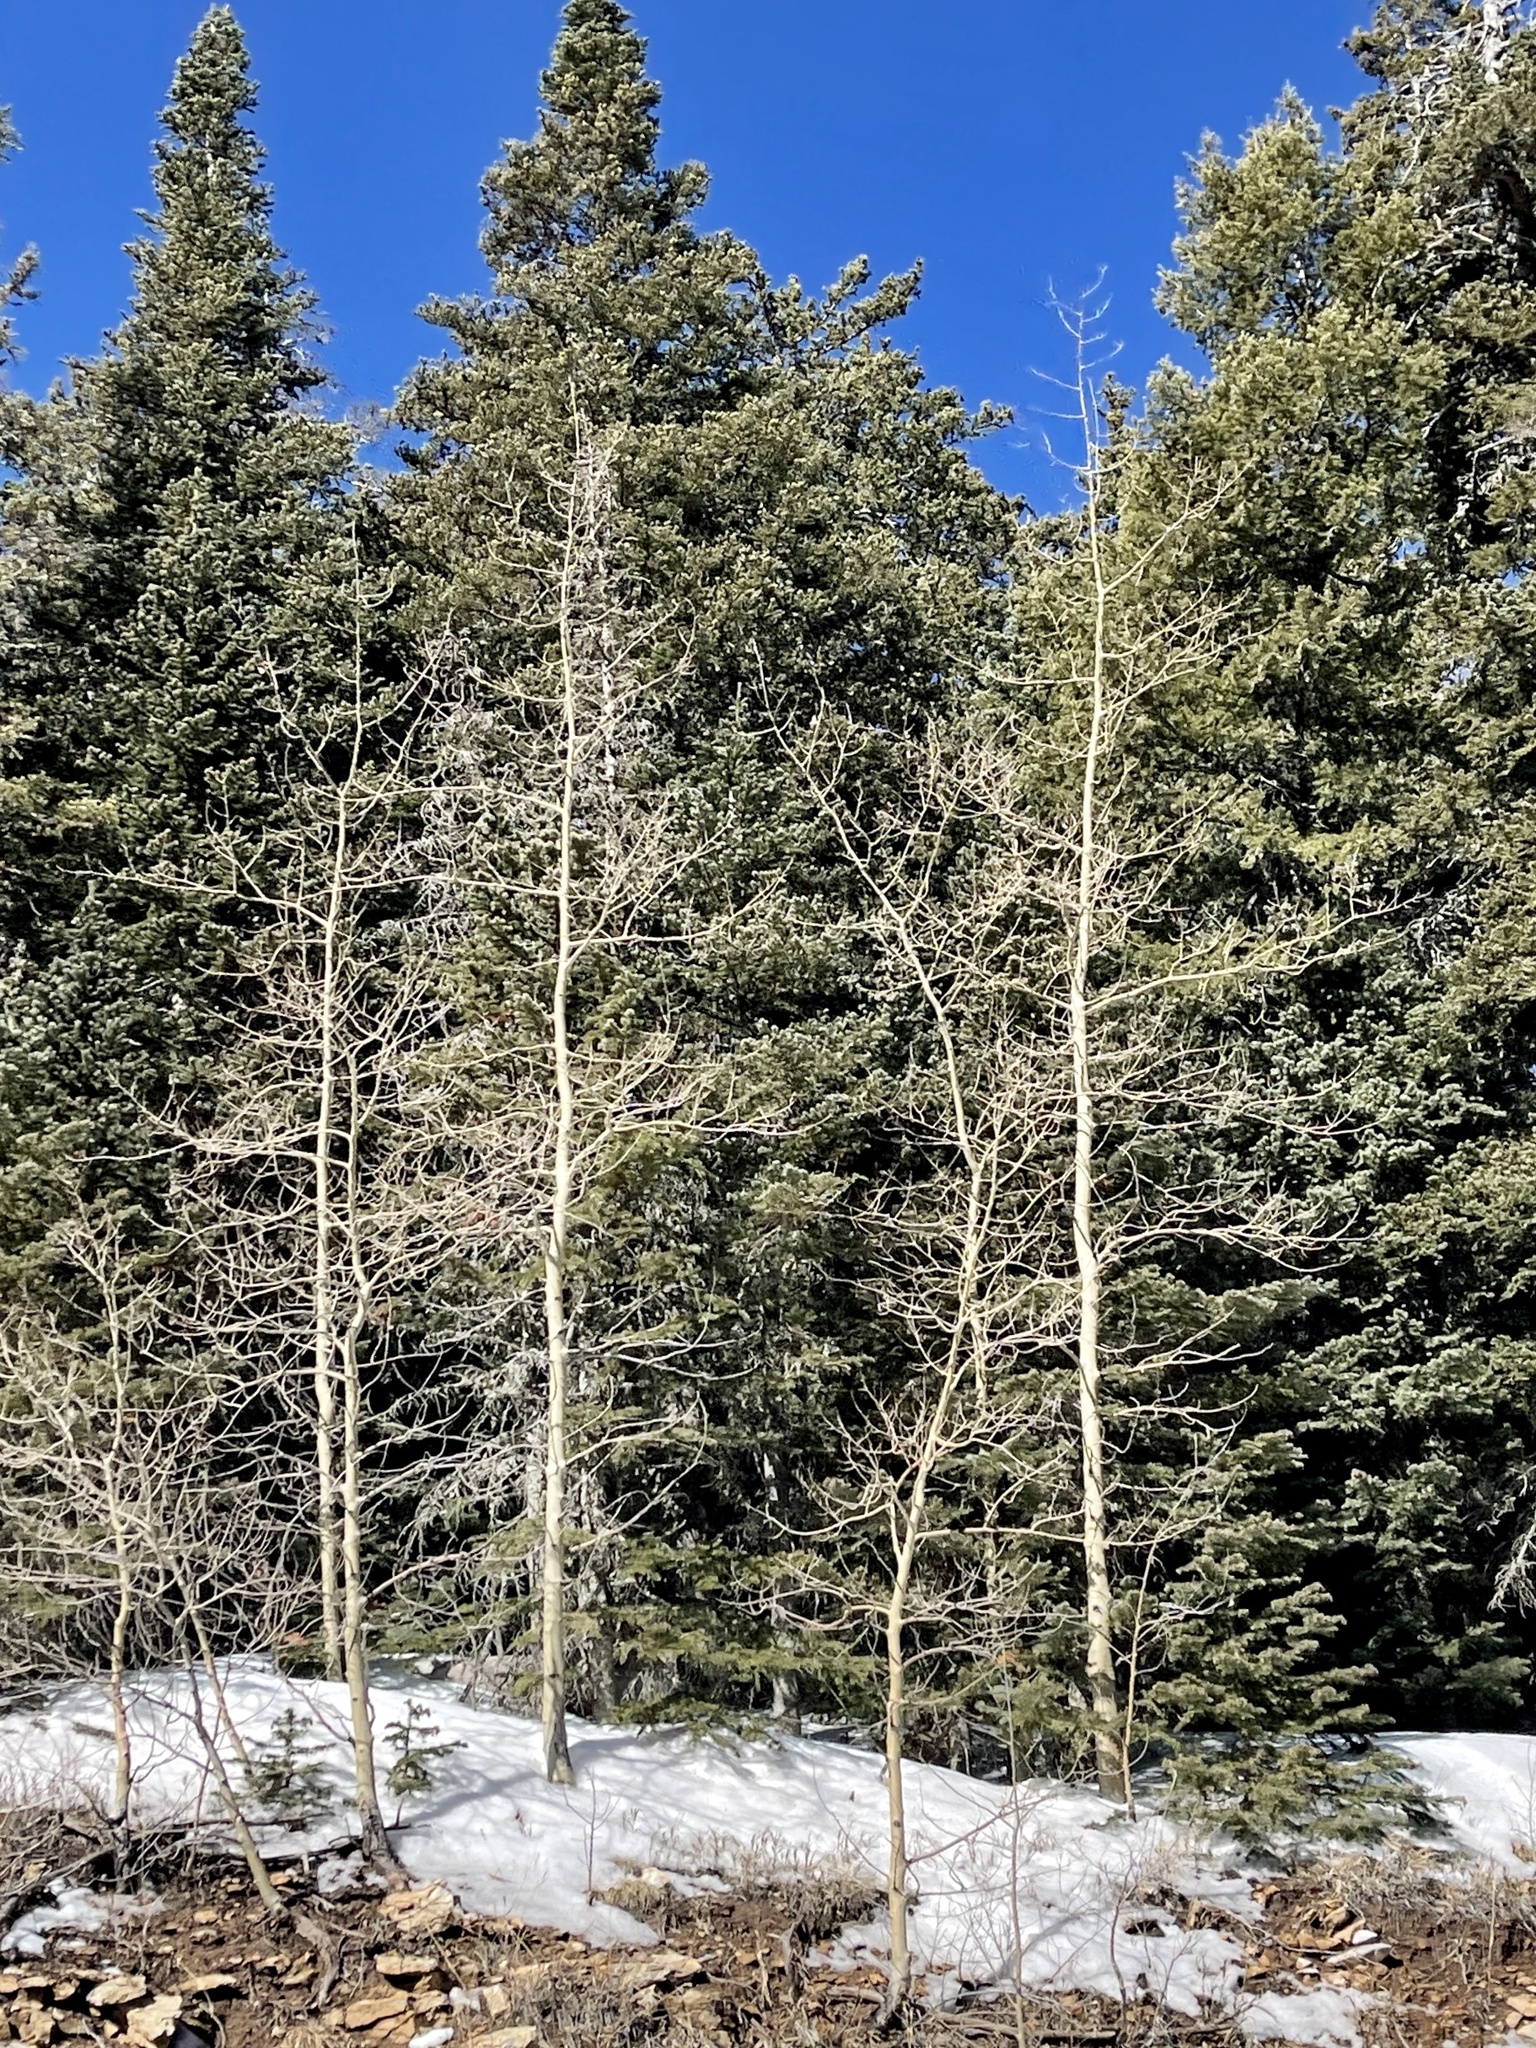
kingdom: Plantae
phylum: Tracheophyta
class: Magnoliopsida
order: Malpighiales
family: Salicaceae
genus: Populus
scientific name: Populus tremuloides
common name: Quaking aspen
